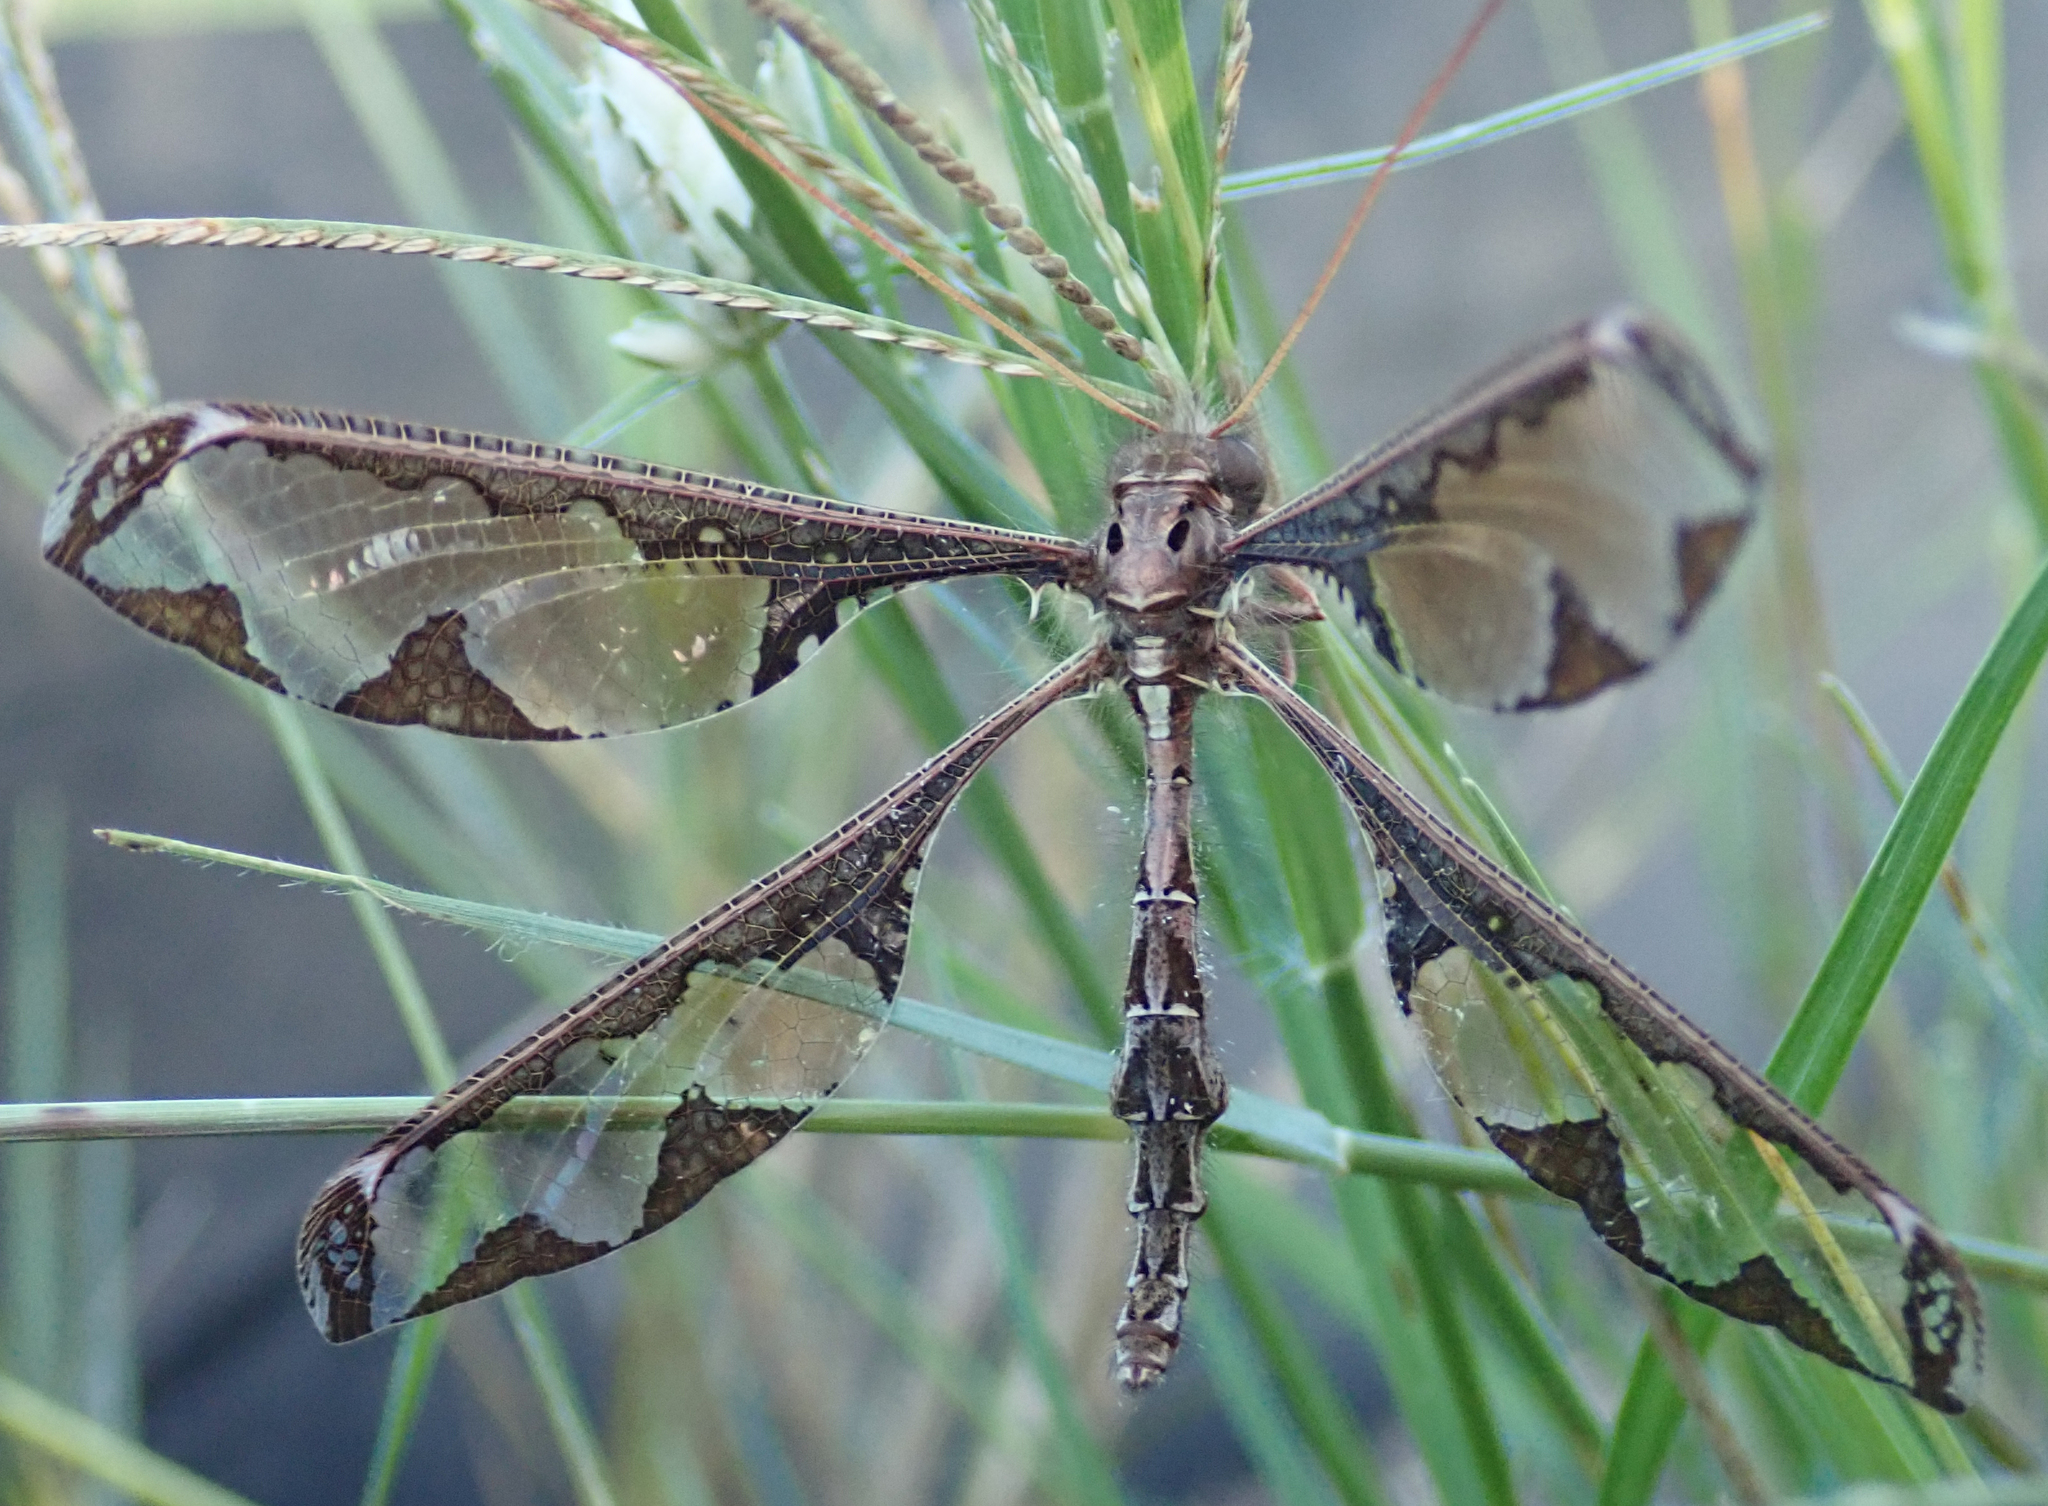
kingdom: Animalia
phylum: Arthropoda
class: Insecta
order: Neuroptera
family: Ascalaphidae
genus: Tmesibasis
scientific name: Tmesibasis lacerata
